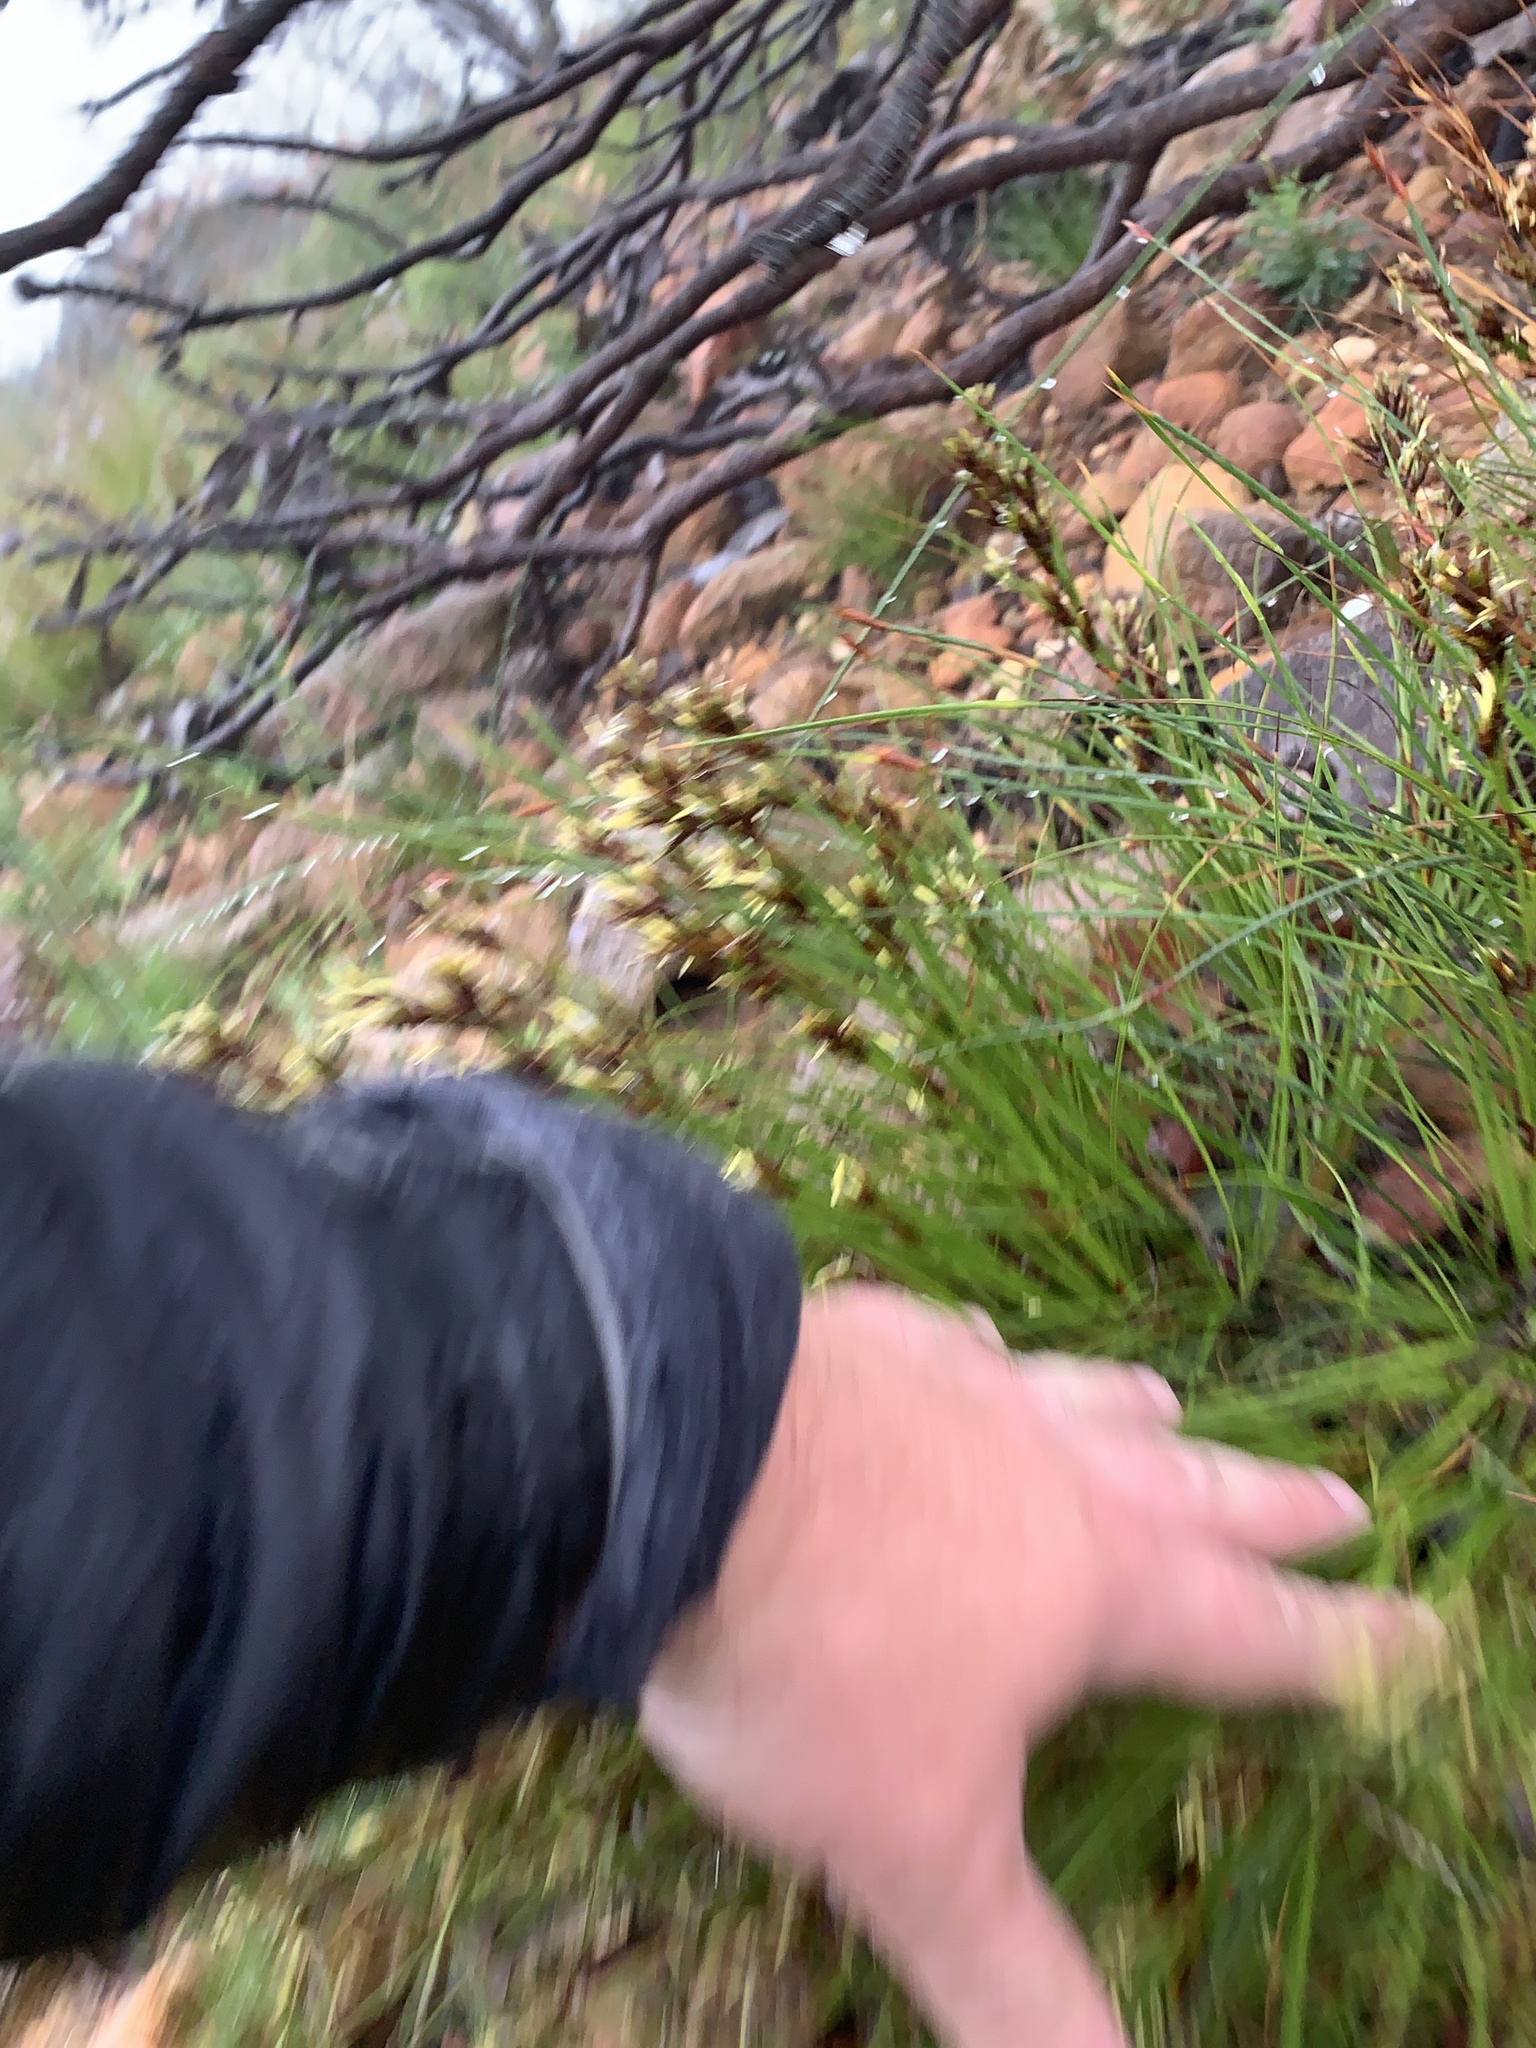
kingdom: Plantae
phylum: Tracheophyta
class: Liliopsida
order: Poales
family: Cyperaceae
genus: Tetraria
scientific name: Tetraria microstachys
